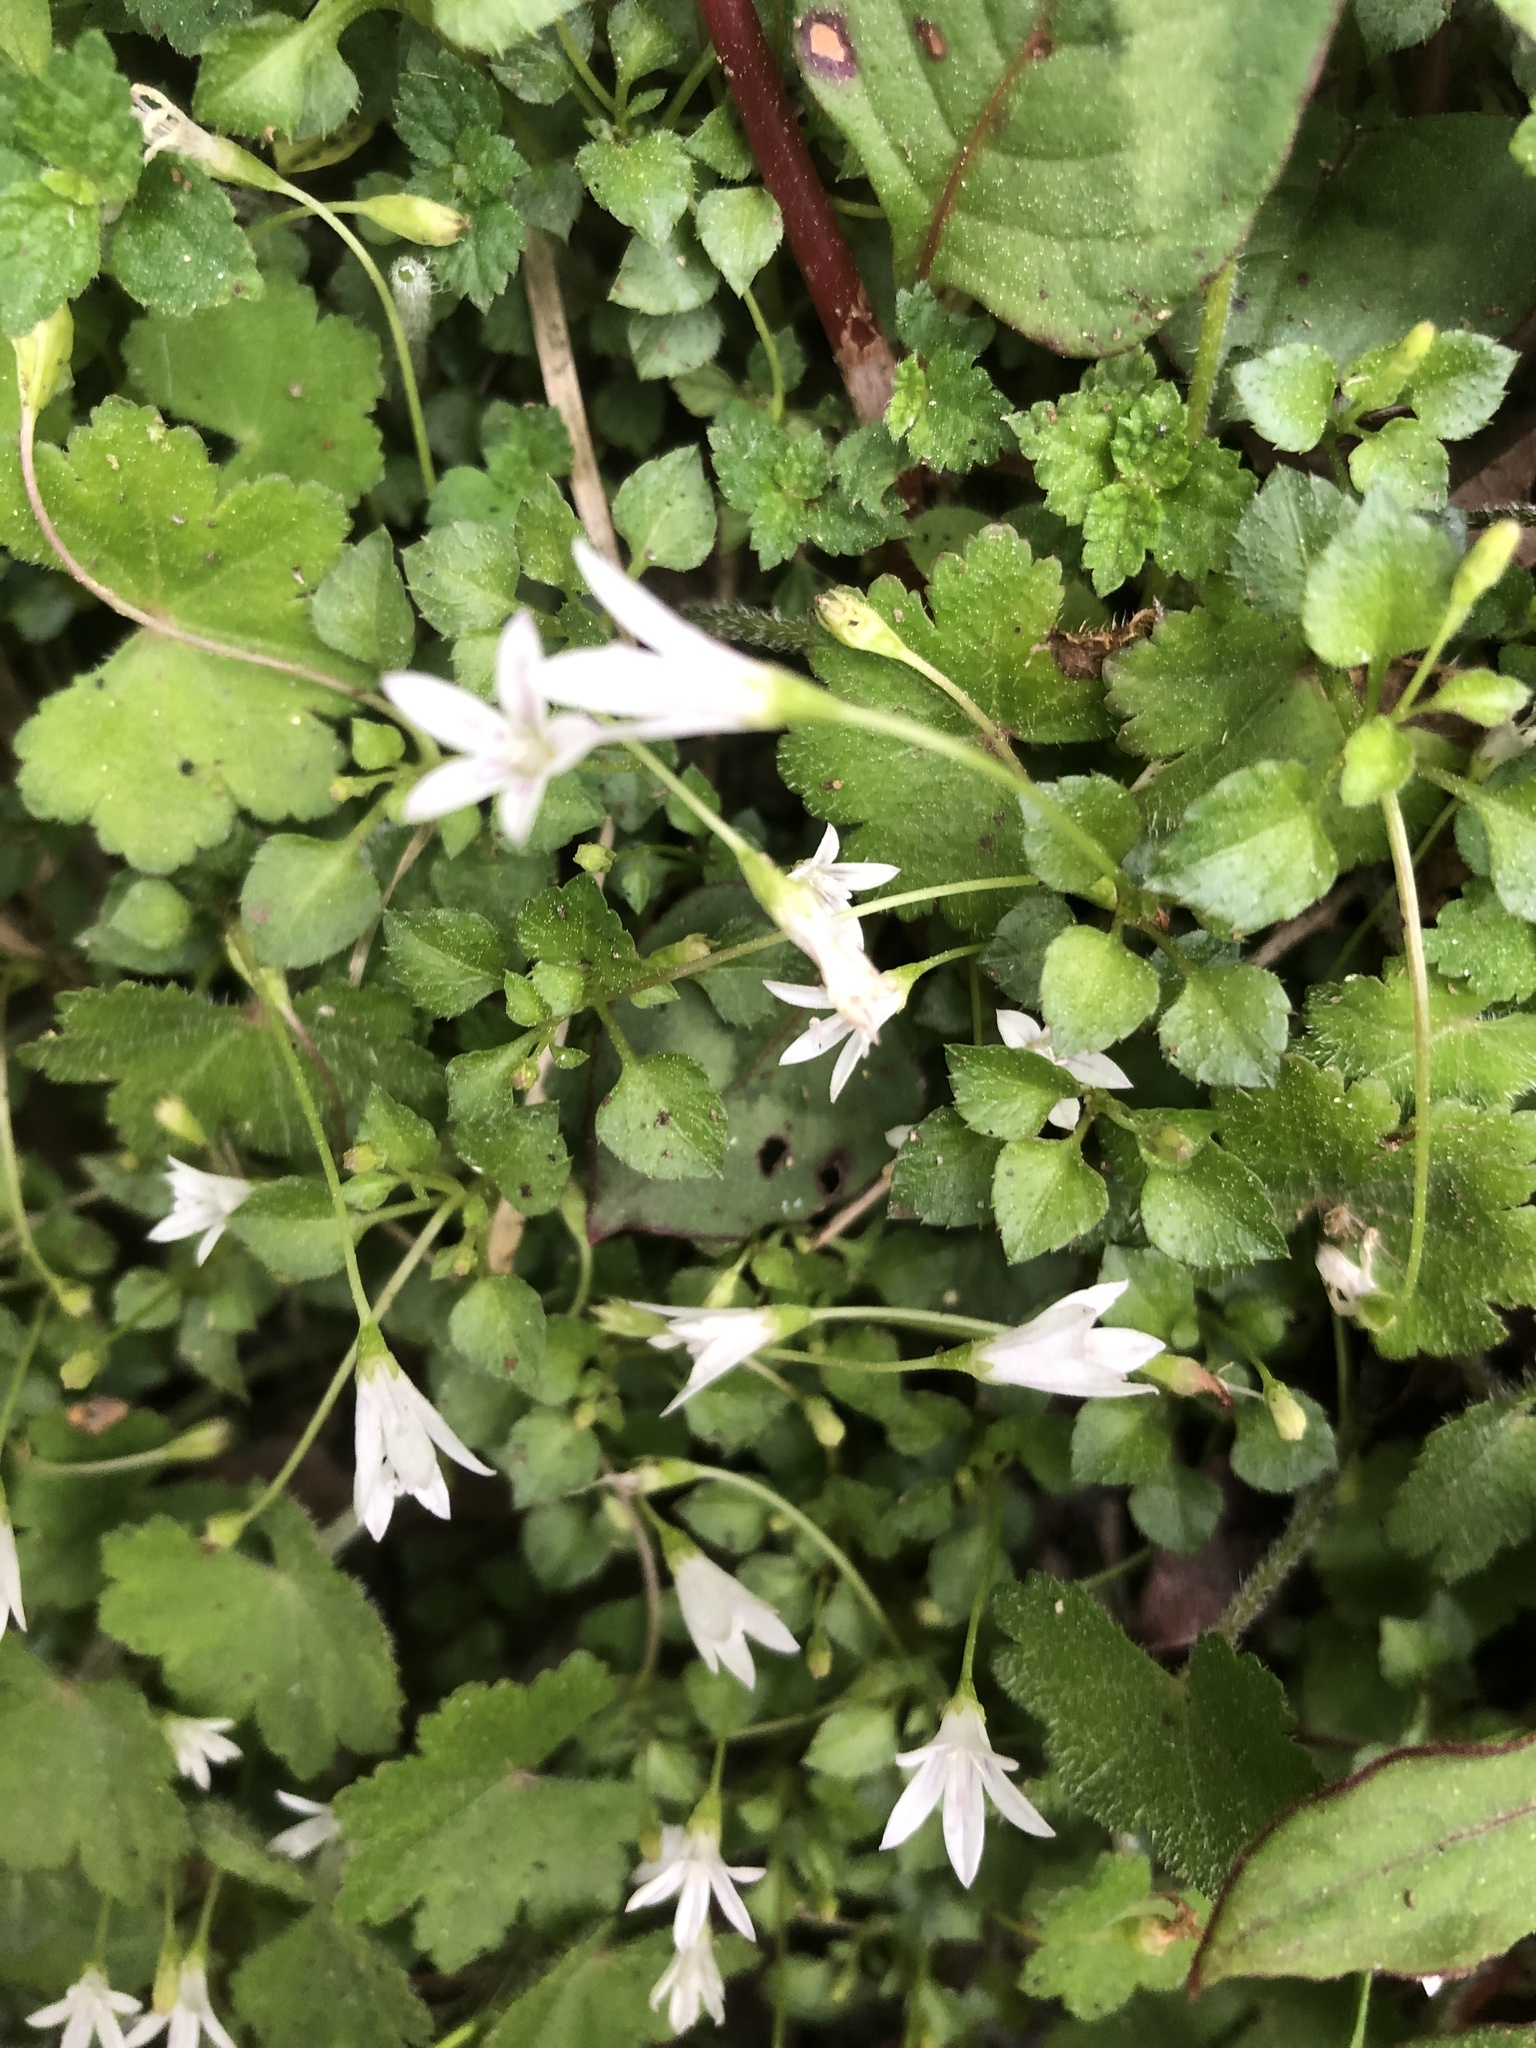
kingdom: Plantae
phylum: Tracheophyta
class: Magnoliopsida
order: Asterales
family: Campanulaceae
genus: Peracarpa
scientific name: Peracarpa carnosa
